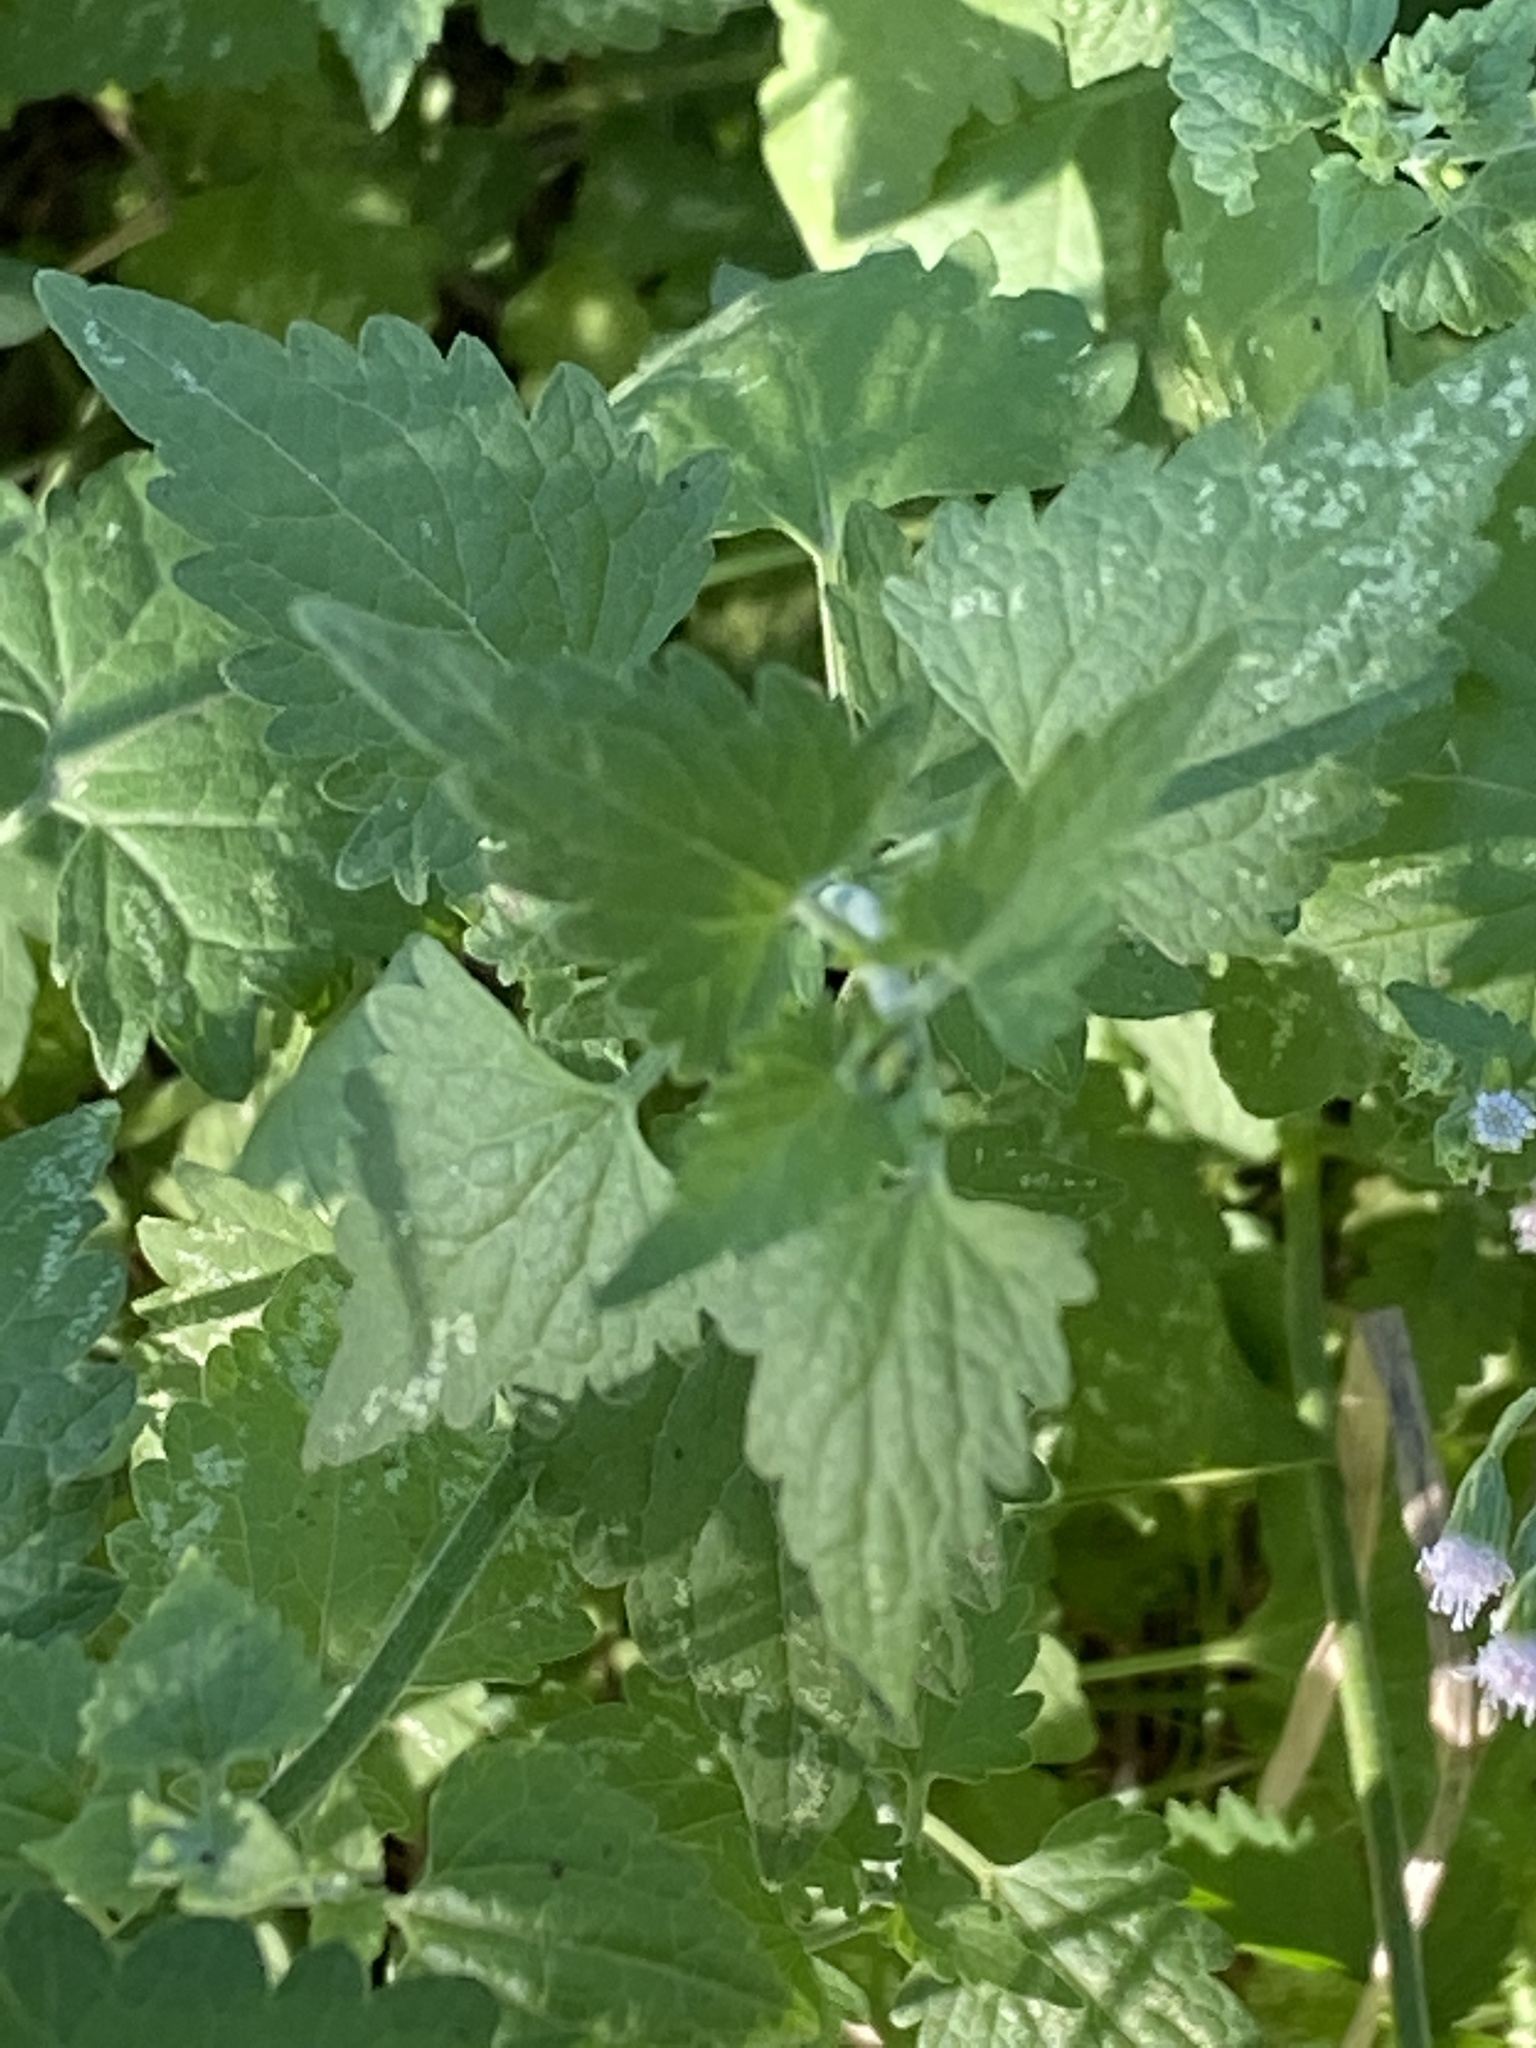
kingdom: Plantae
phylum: Tracheophyta
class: Magnoliopsida
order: Asterales
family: Asteraceae
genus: Fleischmannia
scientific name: Fleischmannia incarnata
